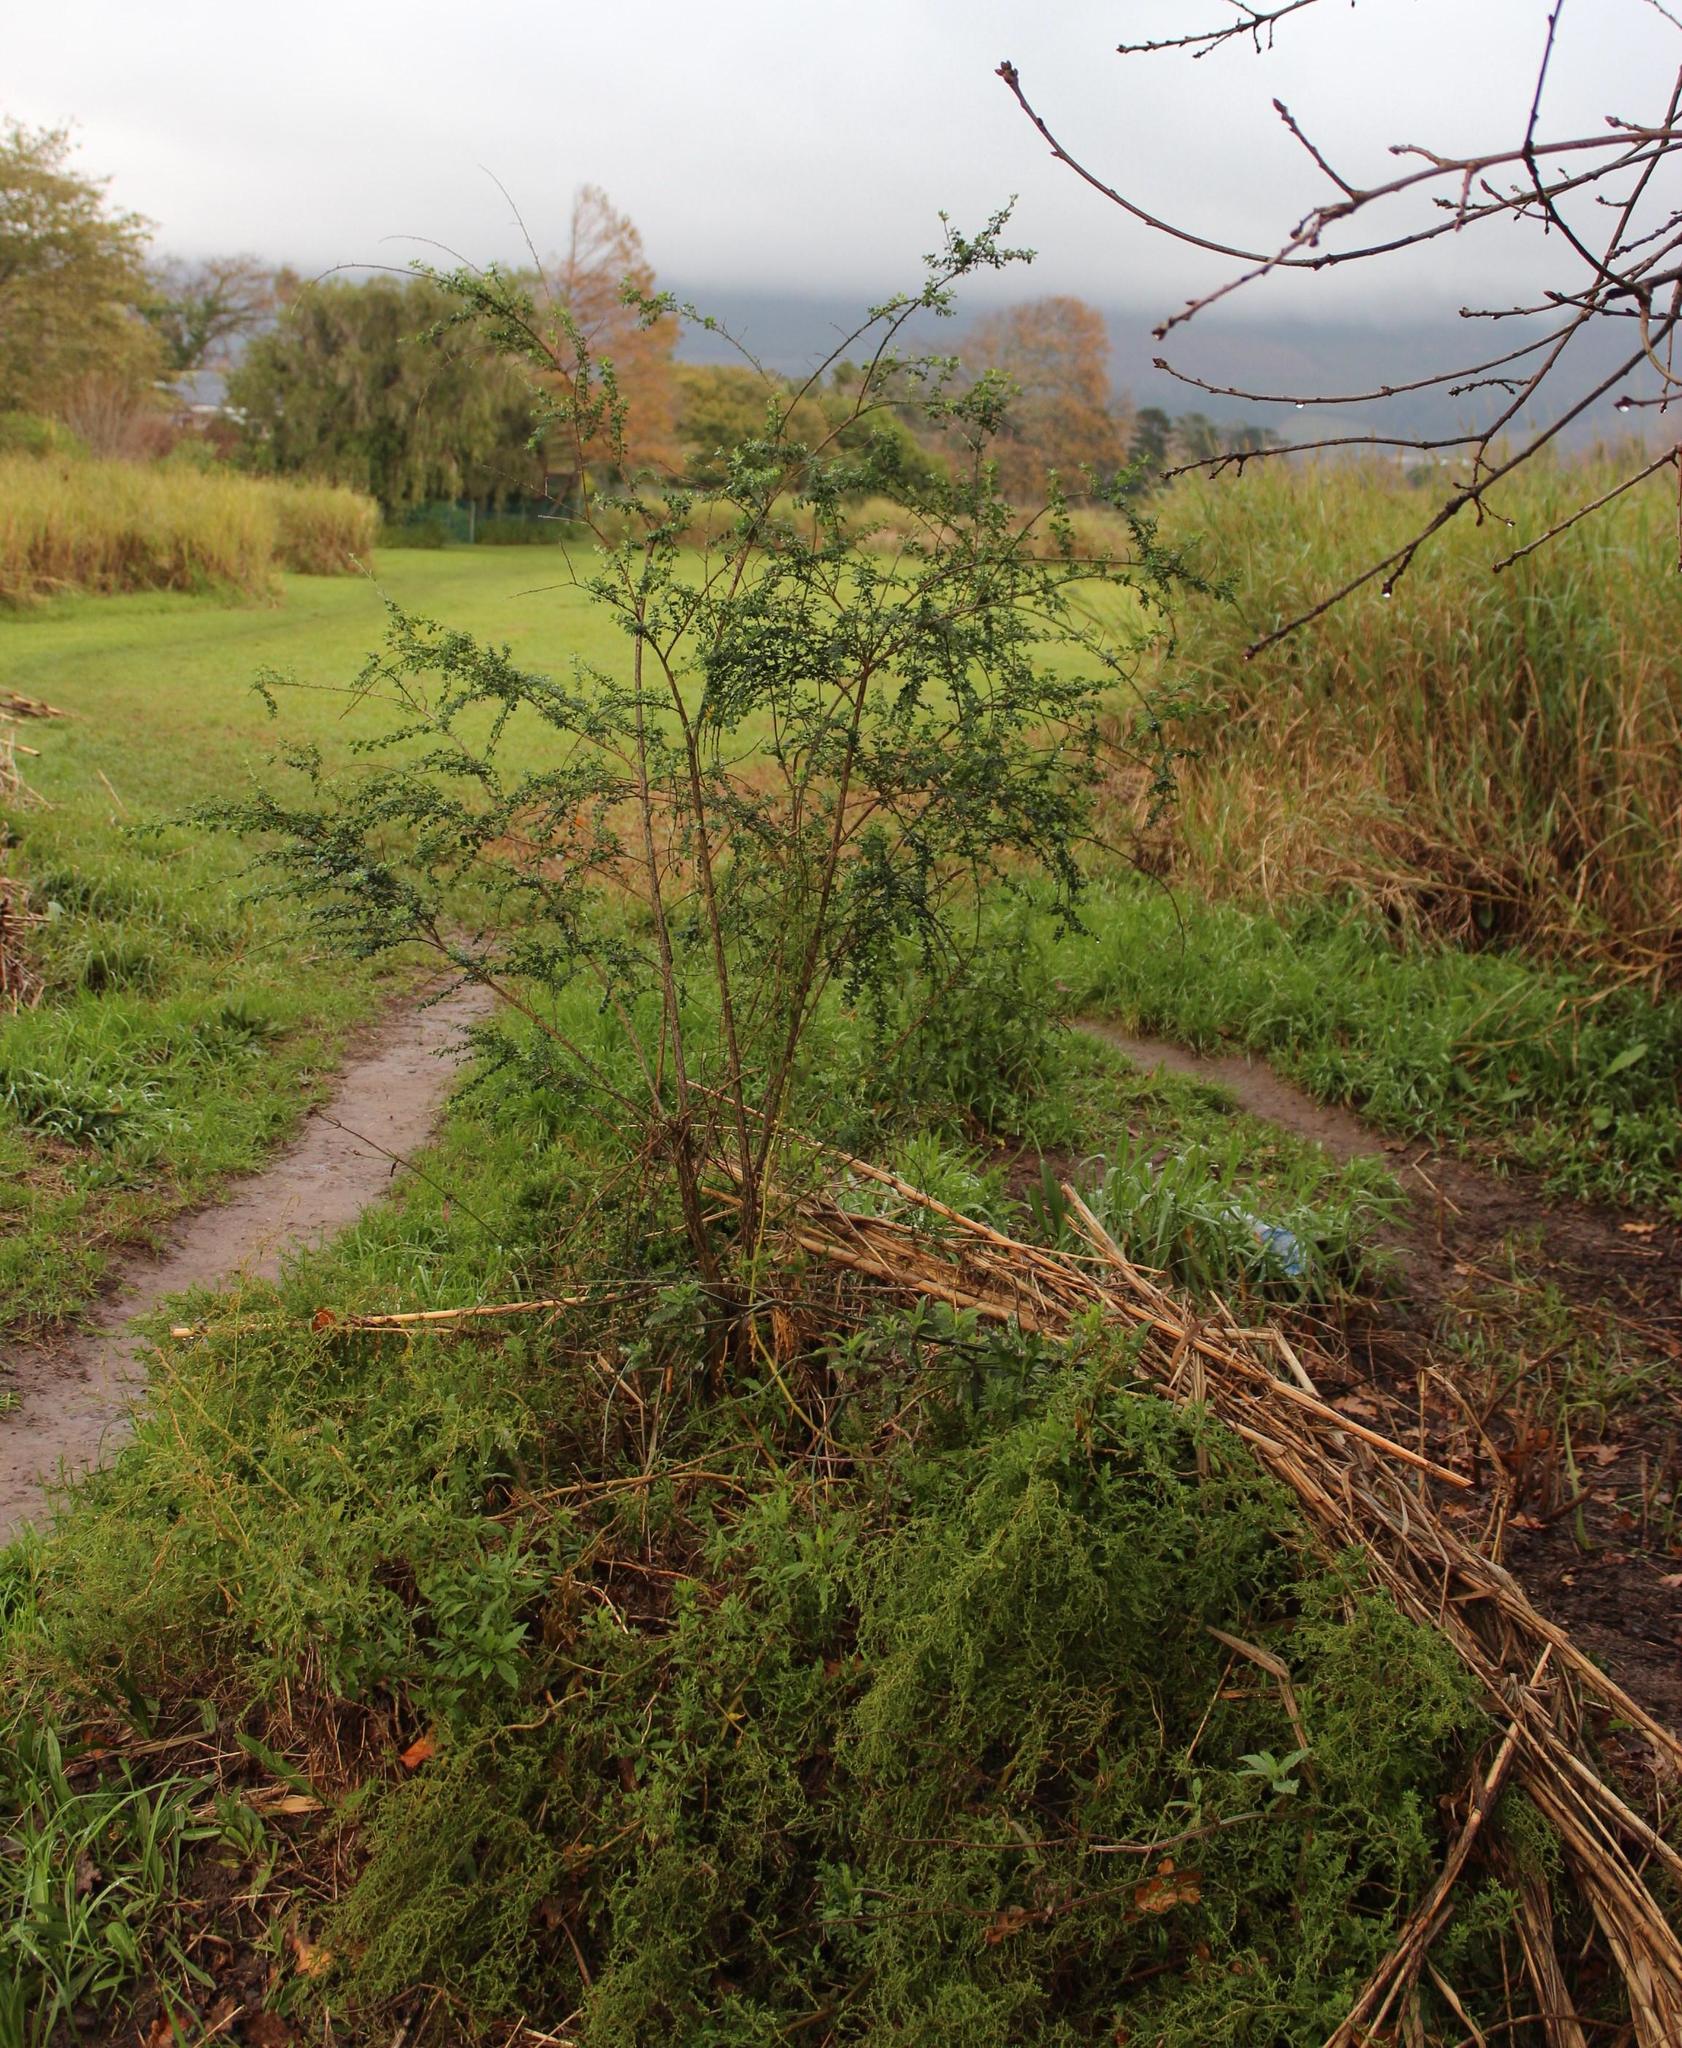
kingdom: Plantae
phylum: Tracheophyta
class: Magnoliopsida
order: Fabales
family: Fabaceae
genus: Genista
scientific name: Genista monspessulana
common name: Montpellier broom
